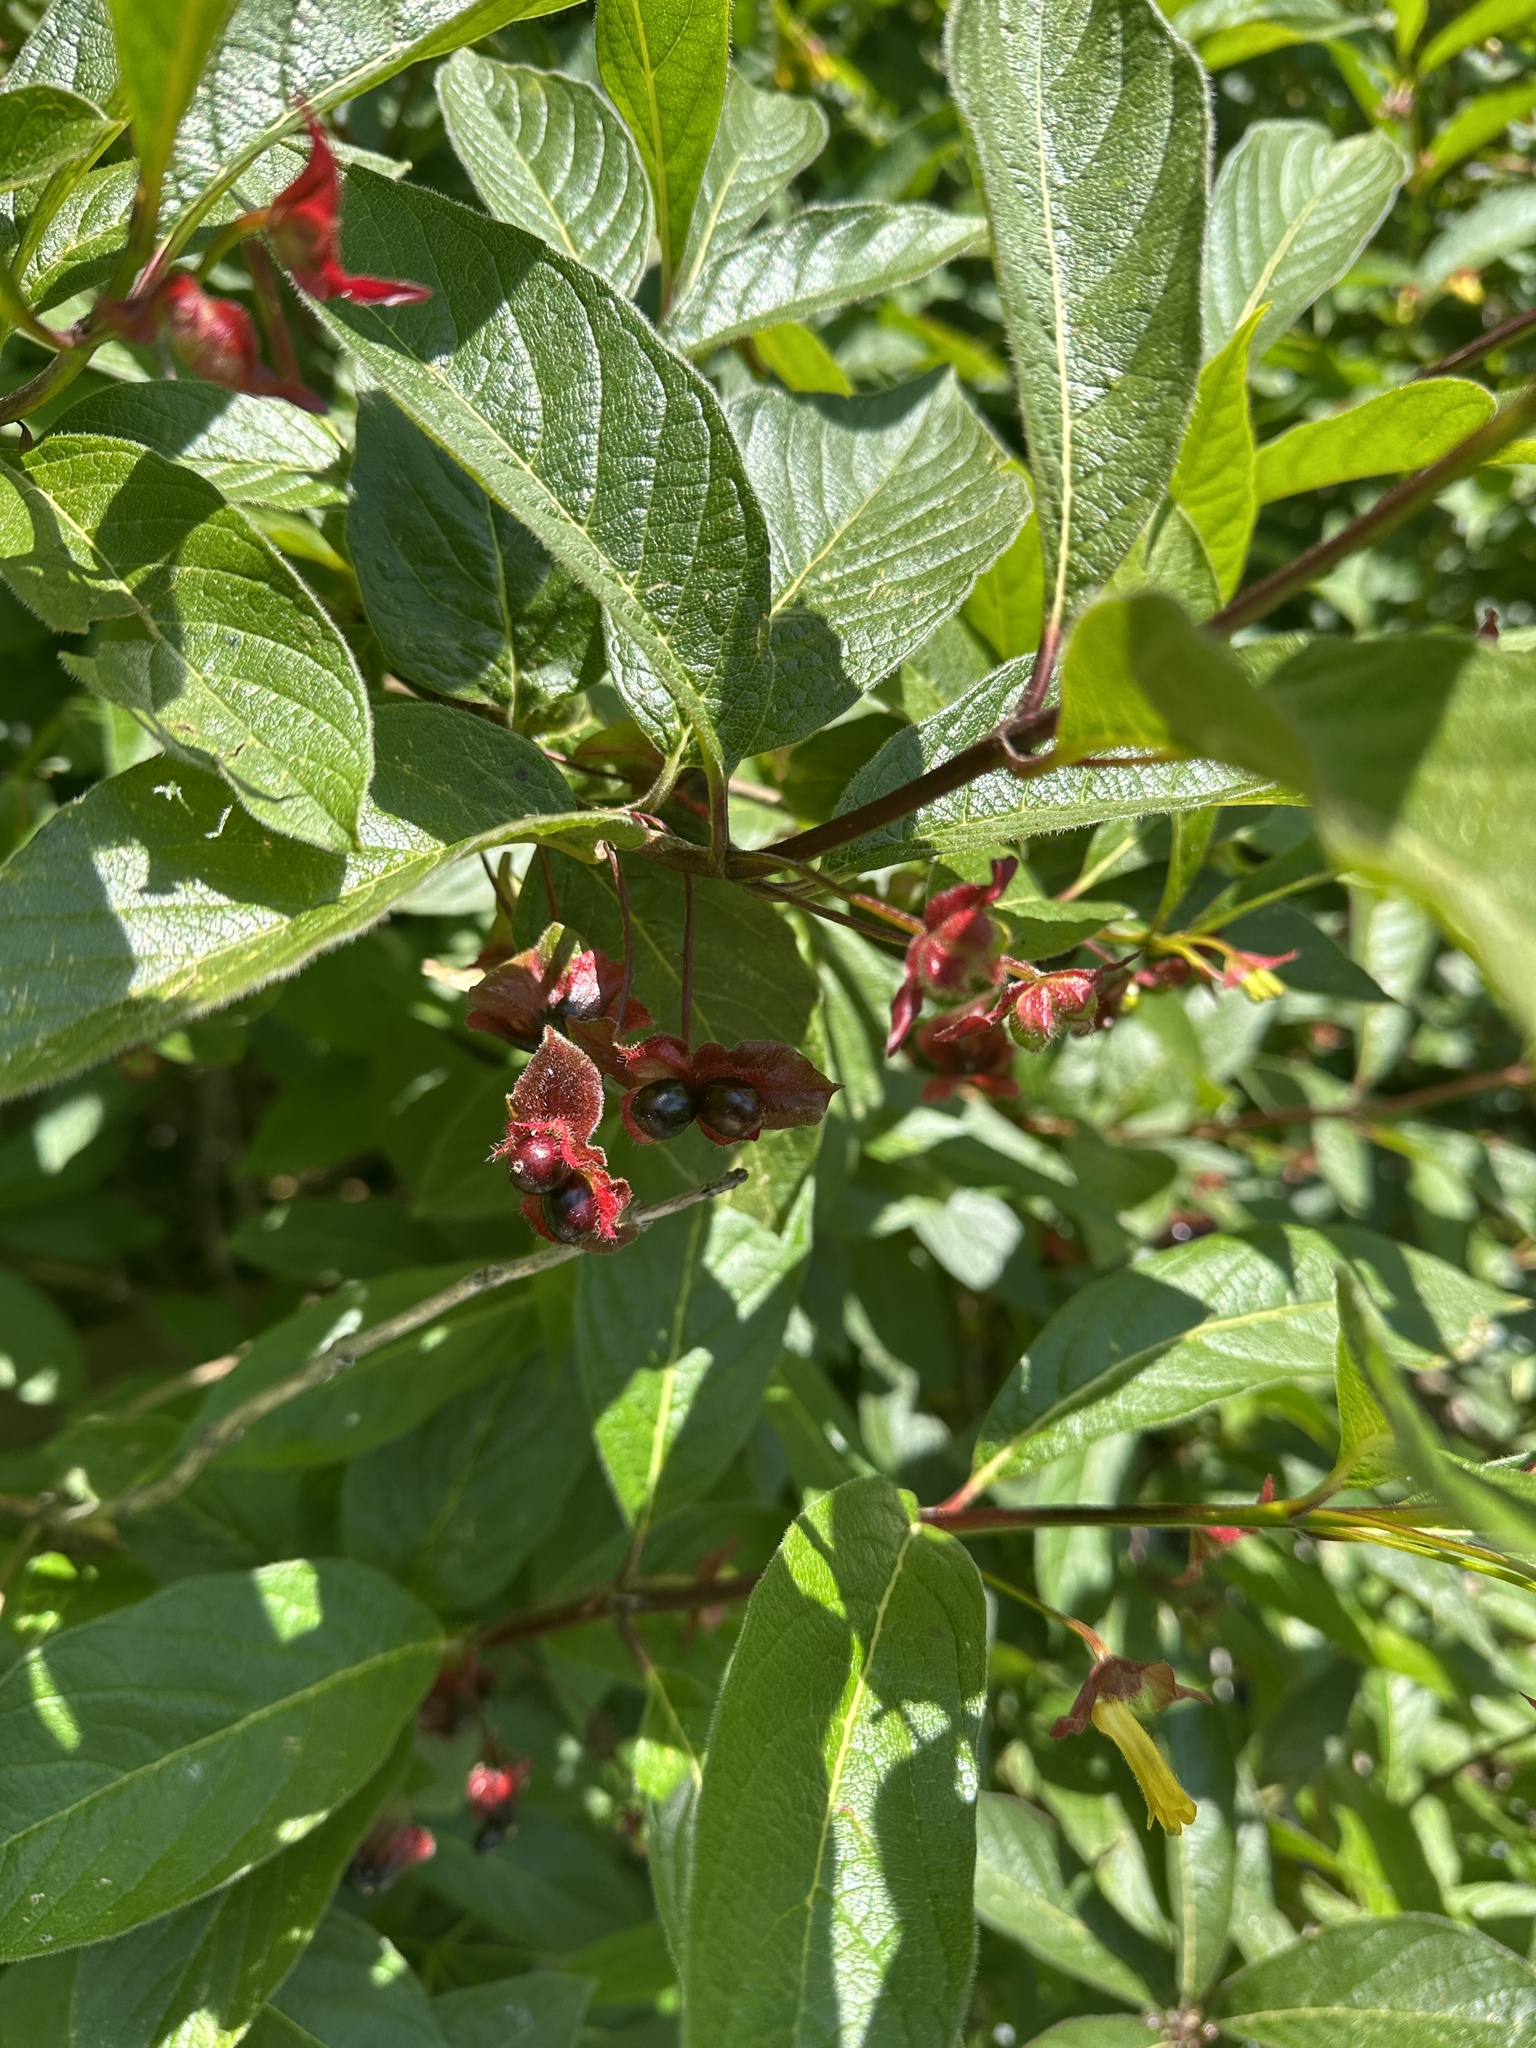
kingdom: Plantae
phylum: Tracheophyta
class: Magnoliopsida
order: Dipsacales
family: Caprifoliaceae
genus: Lonicera
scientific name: Lonicera involucrata
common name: Californian honeysuckle
